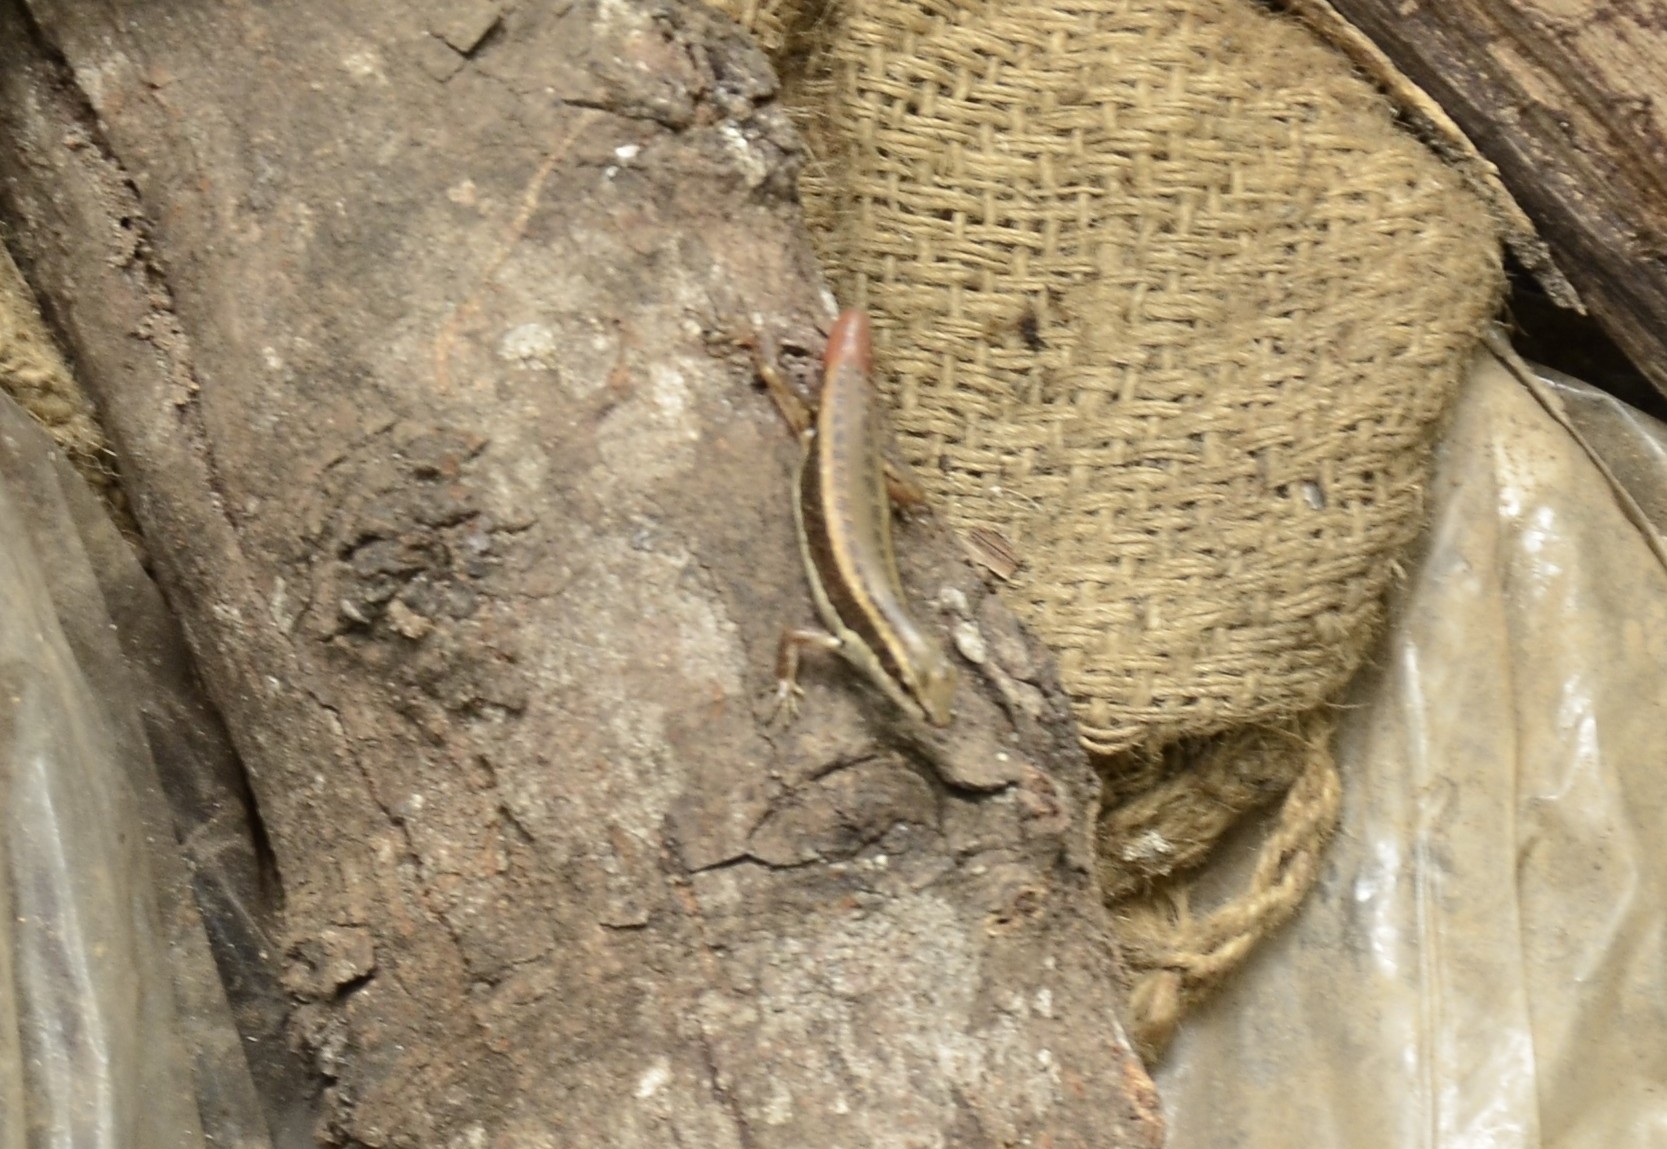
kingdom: Animalia
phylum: Chordata
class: Squamata
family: Scincidae
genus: Sphenomorphus
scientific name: Sphenomorphus dussumieri
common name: Dussumier's forest skink
